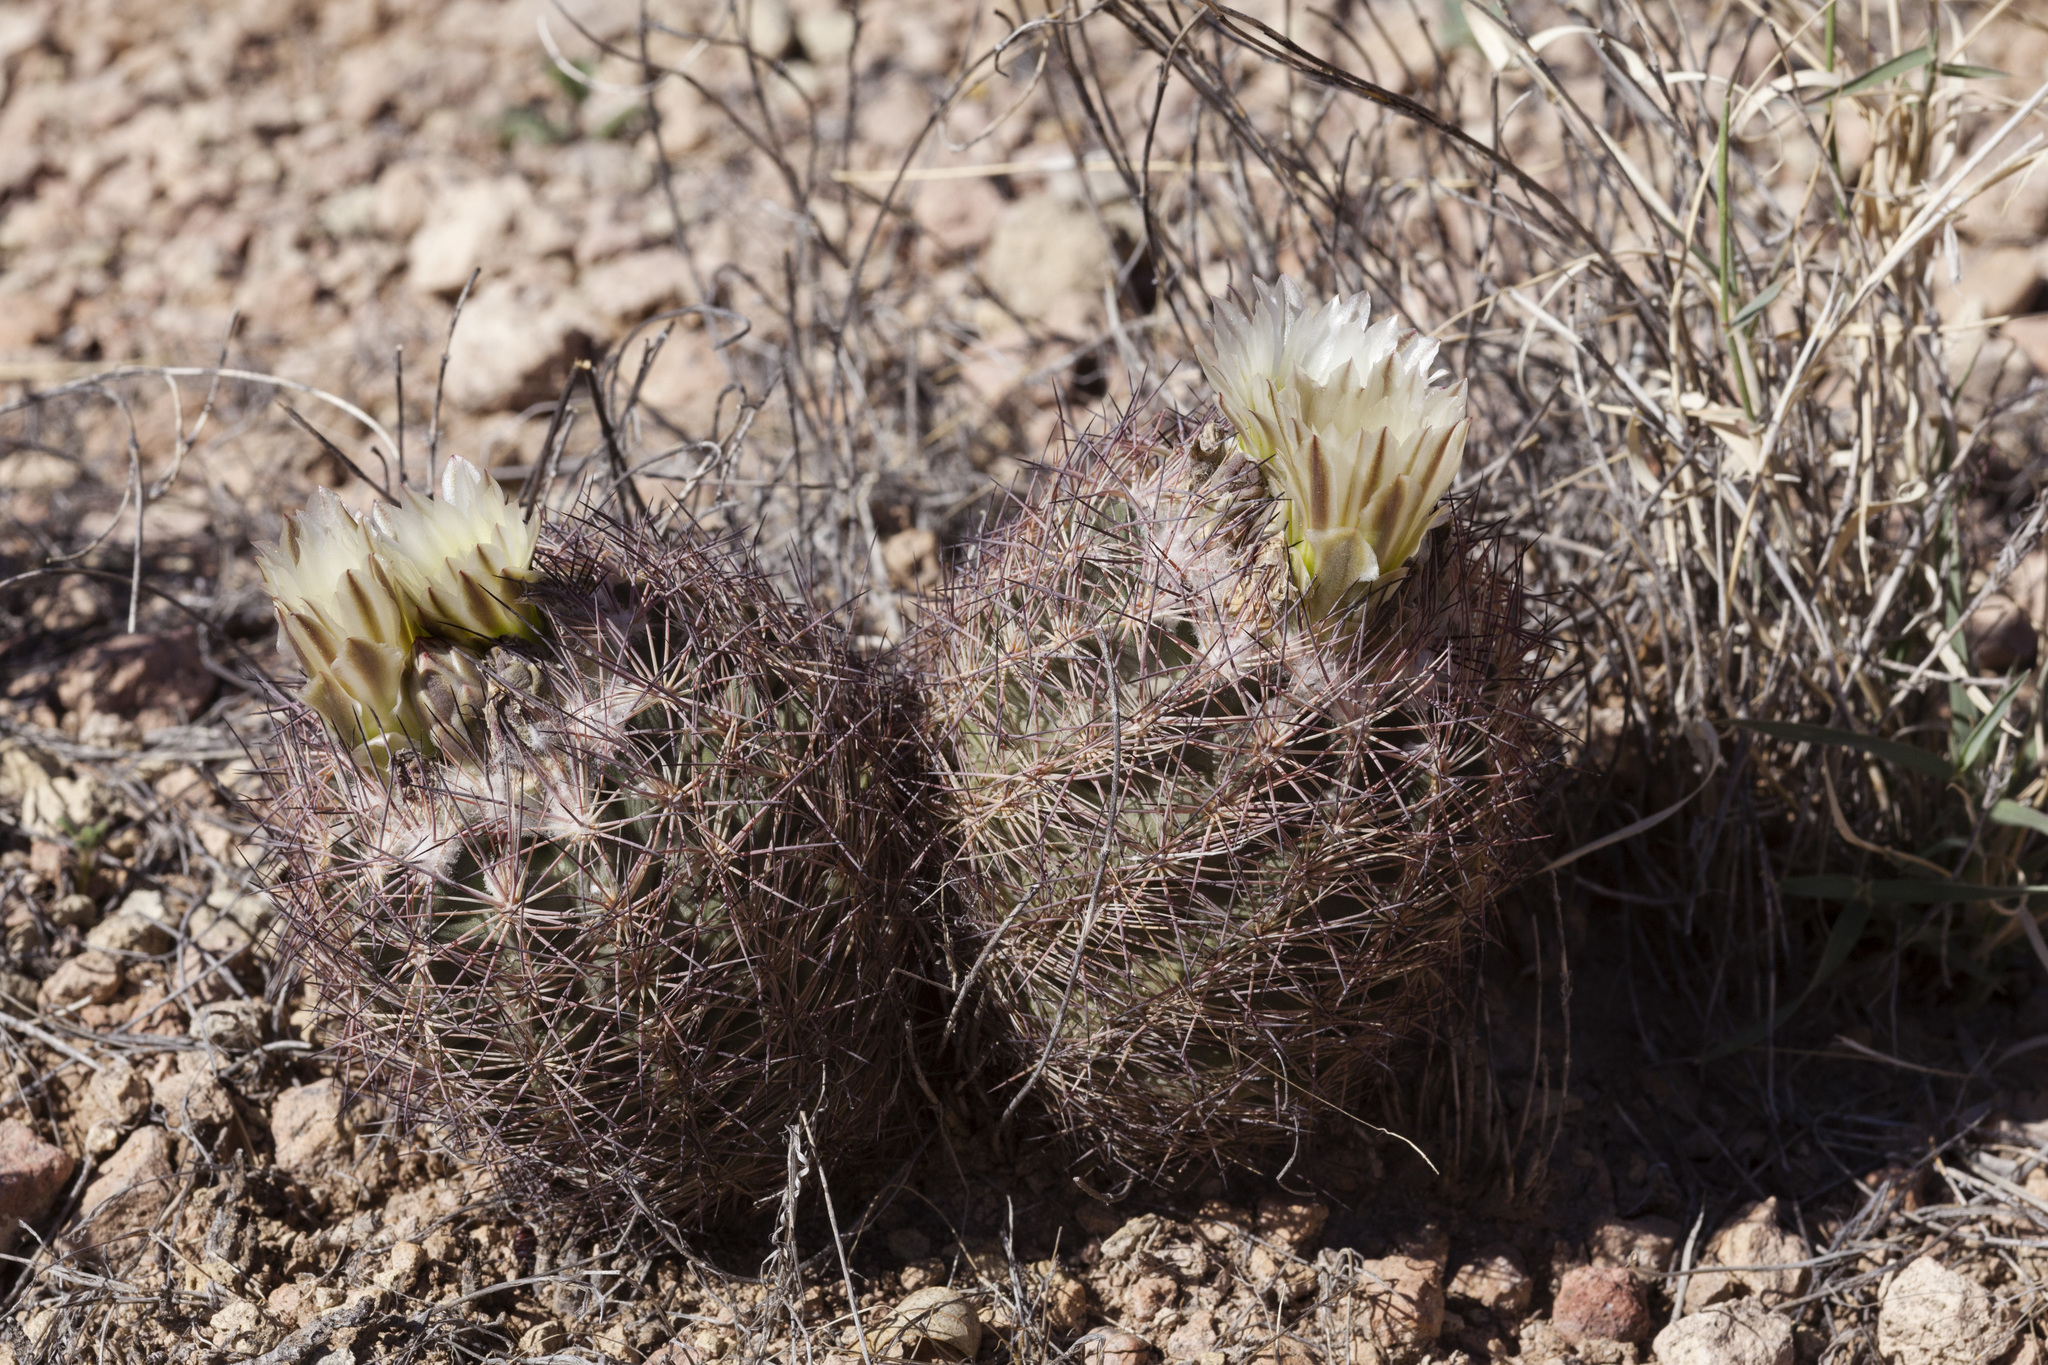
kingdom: Plantae
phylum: Tracheophyta
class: Magnoliopsida
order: Caryophyllales
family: Cactaceae
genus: Sclerocactus
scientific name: Sclerocactus intertextus
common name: White fish-hook cactus
